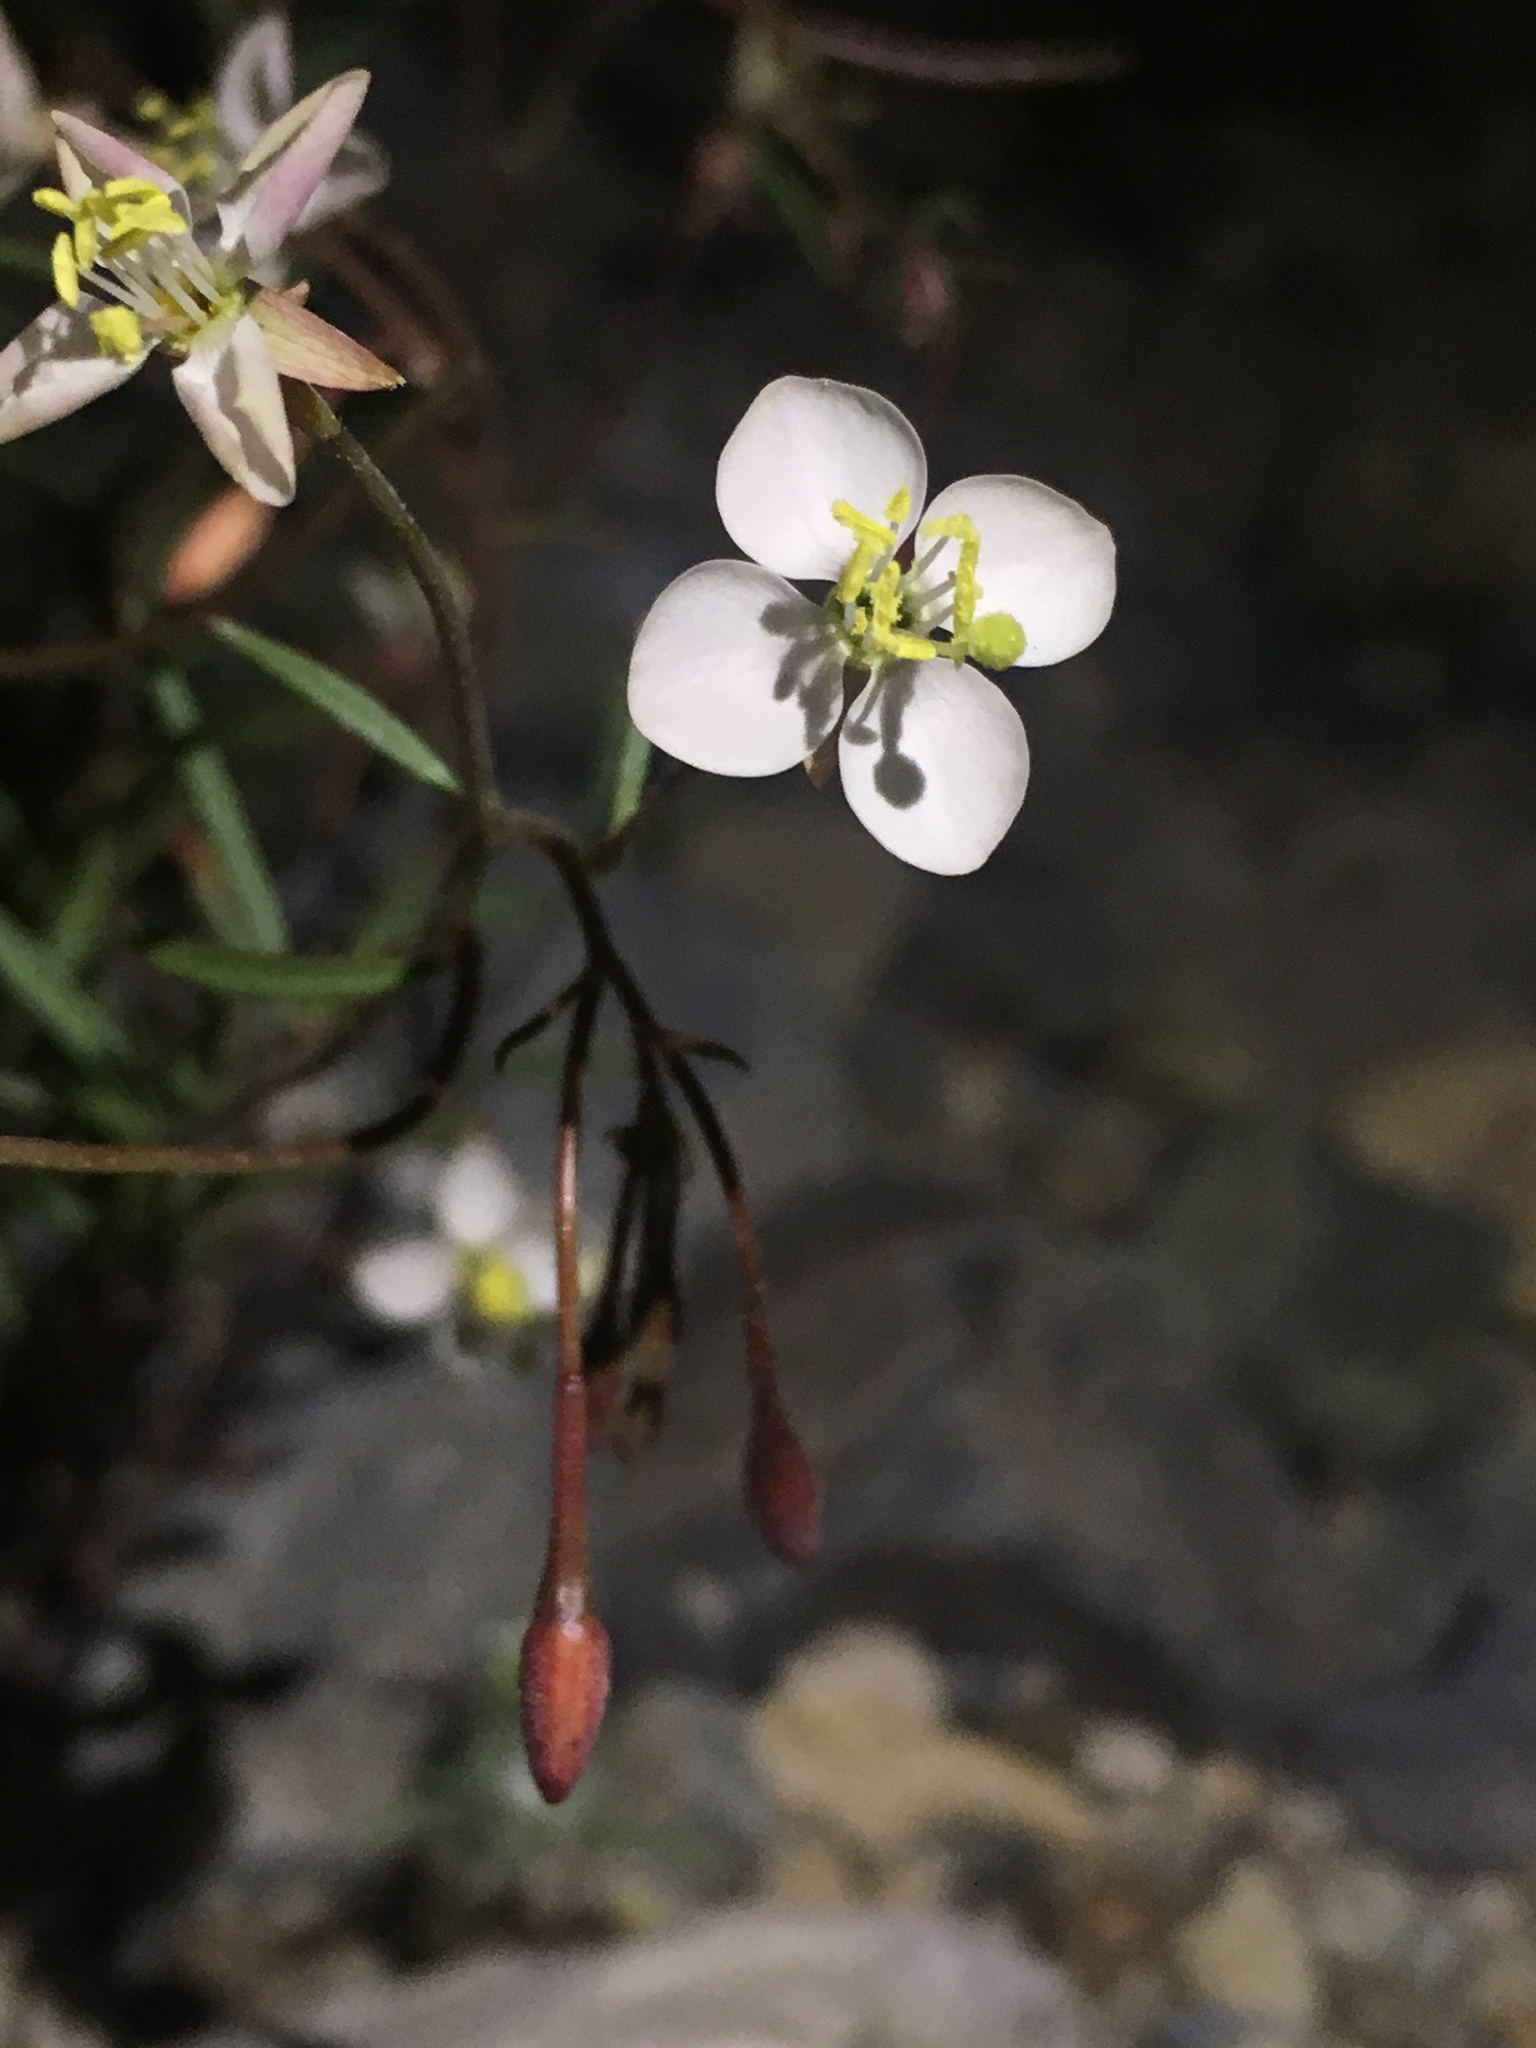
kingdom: Plantae
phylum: Tracheophyta
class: Magnoliopsida
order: Myrtales
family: Onagraceae
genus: Eremothera
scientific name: Eremothera refracta
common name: Narrowleaf suncup
